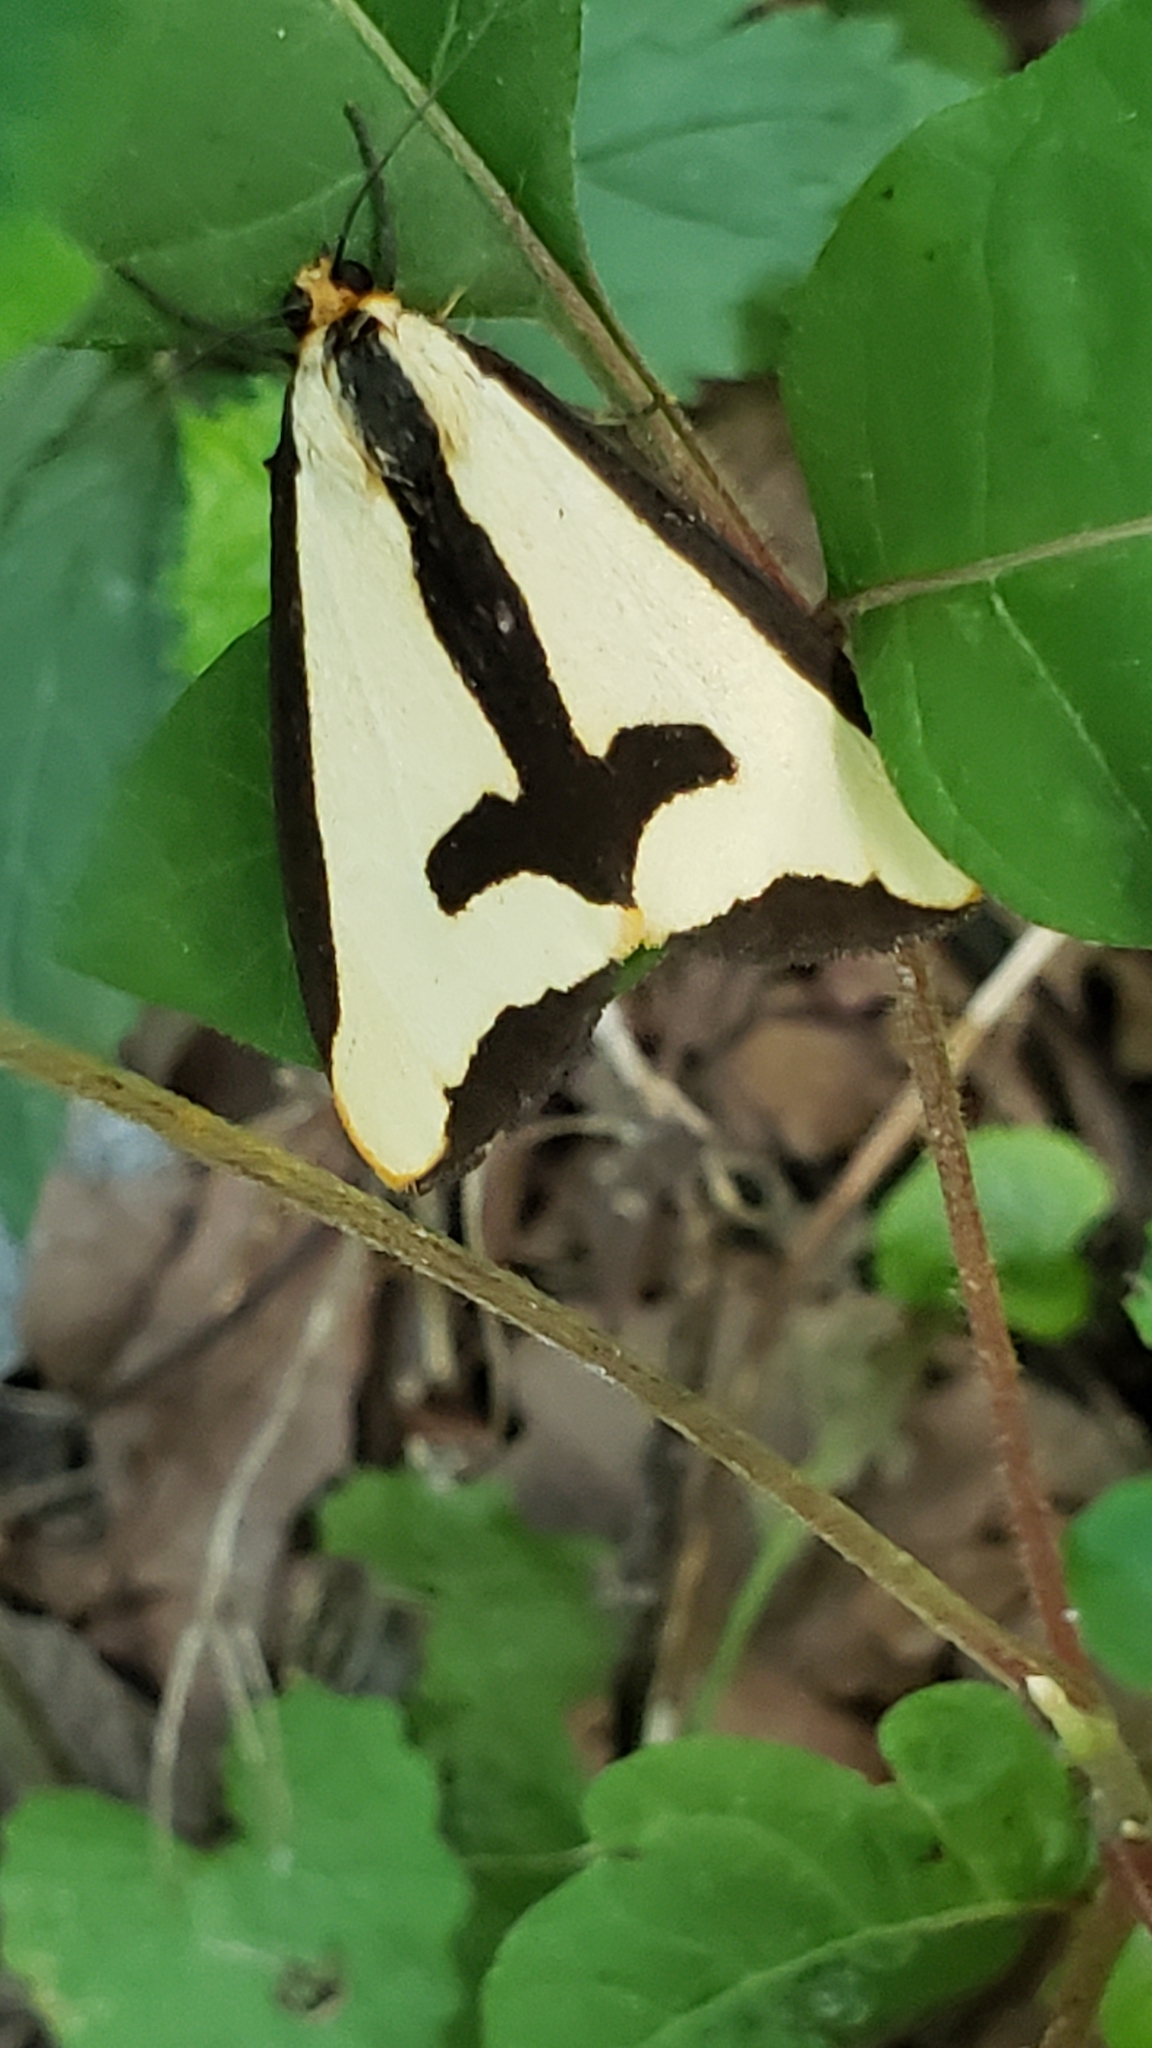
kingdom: Animalia
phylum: Arthropoda
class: Insecta
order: Lepidoptera
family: Erebidae
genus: Haploa
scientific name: Haploa clymene
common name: Clymene moth
